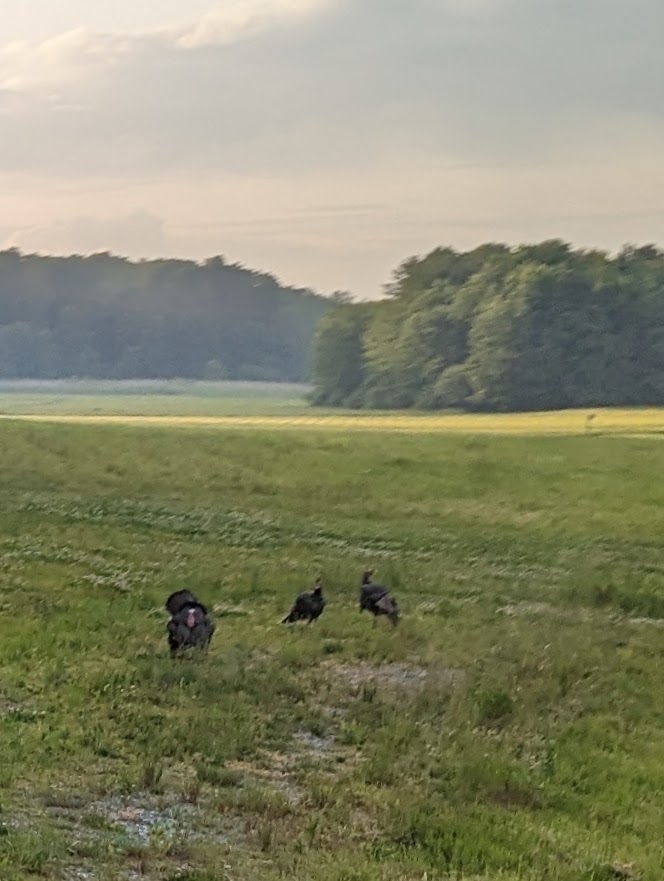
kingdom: Animalia
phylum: Chordata
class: Aves
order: Galliformes
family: Phasianidae
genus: Meleagris
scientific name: Meleagris gallopavo
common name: Wild turkey
